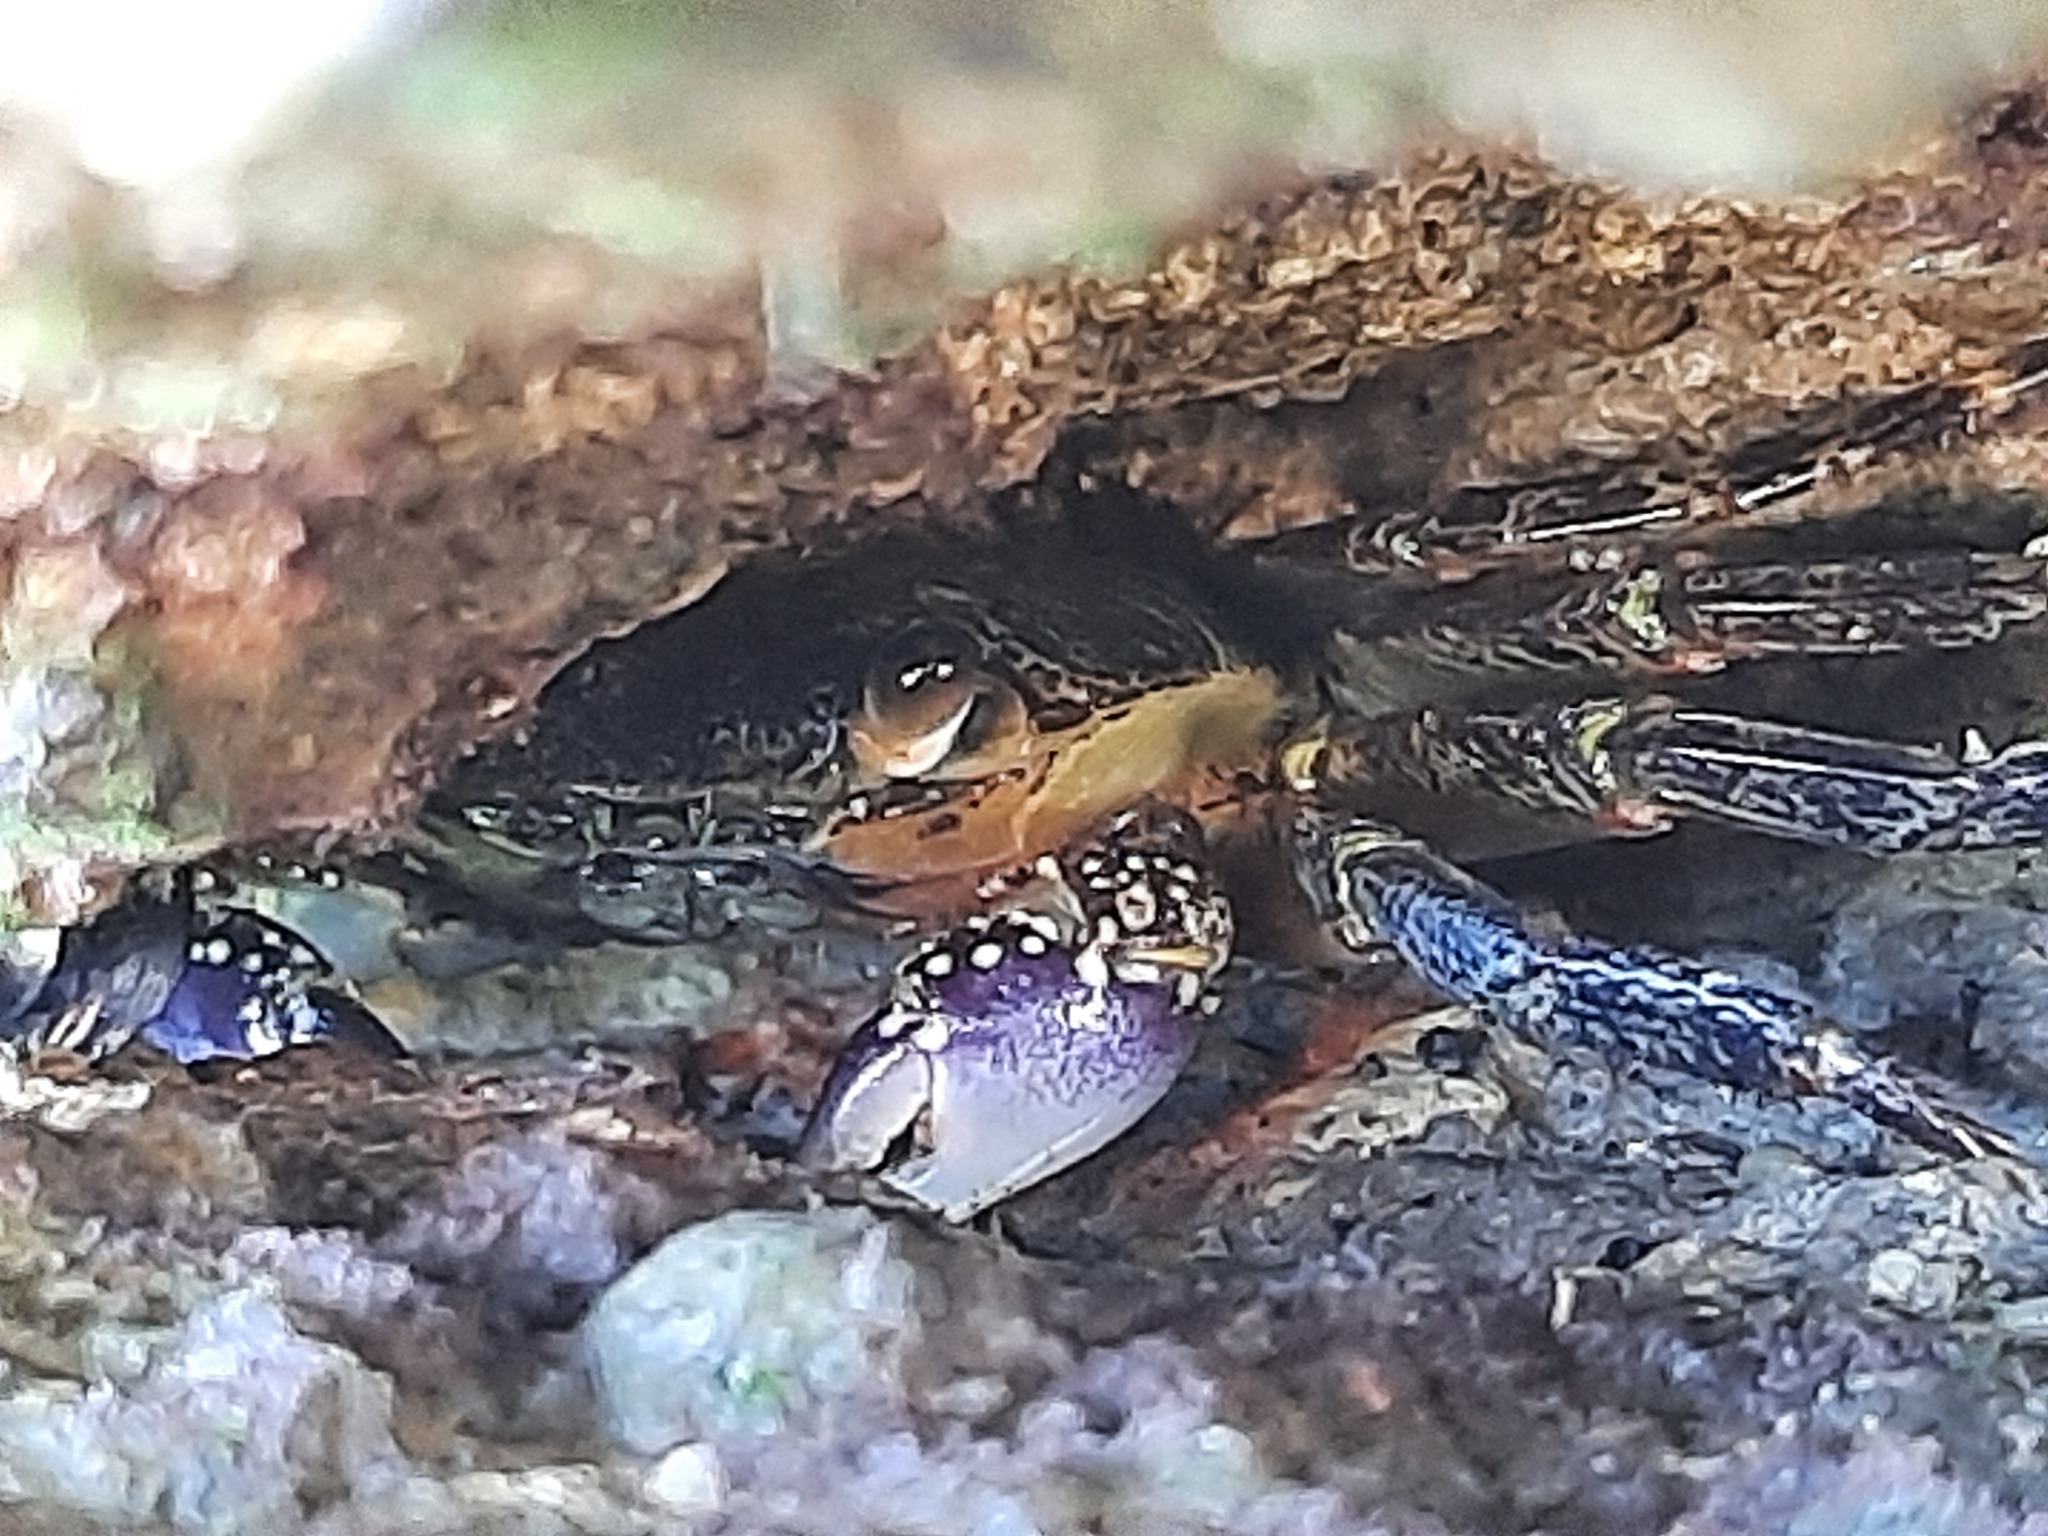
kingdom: Animalia
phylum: Arthropoda
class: Malacostraca
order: Decapoda
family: Grapsidae
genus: Leptograpsus
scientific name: Leptograpsus variegatus
